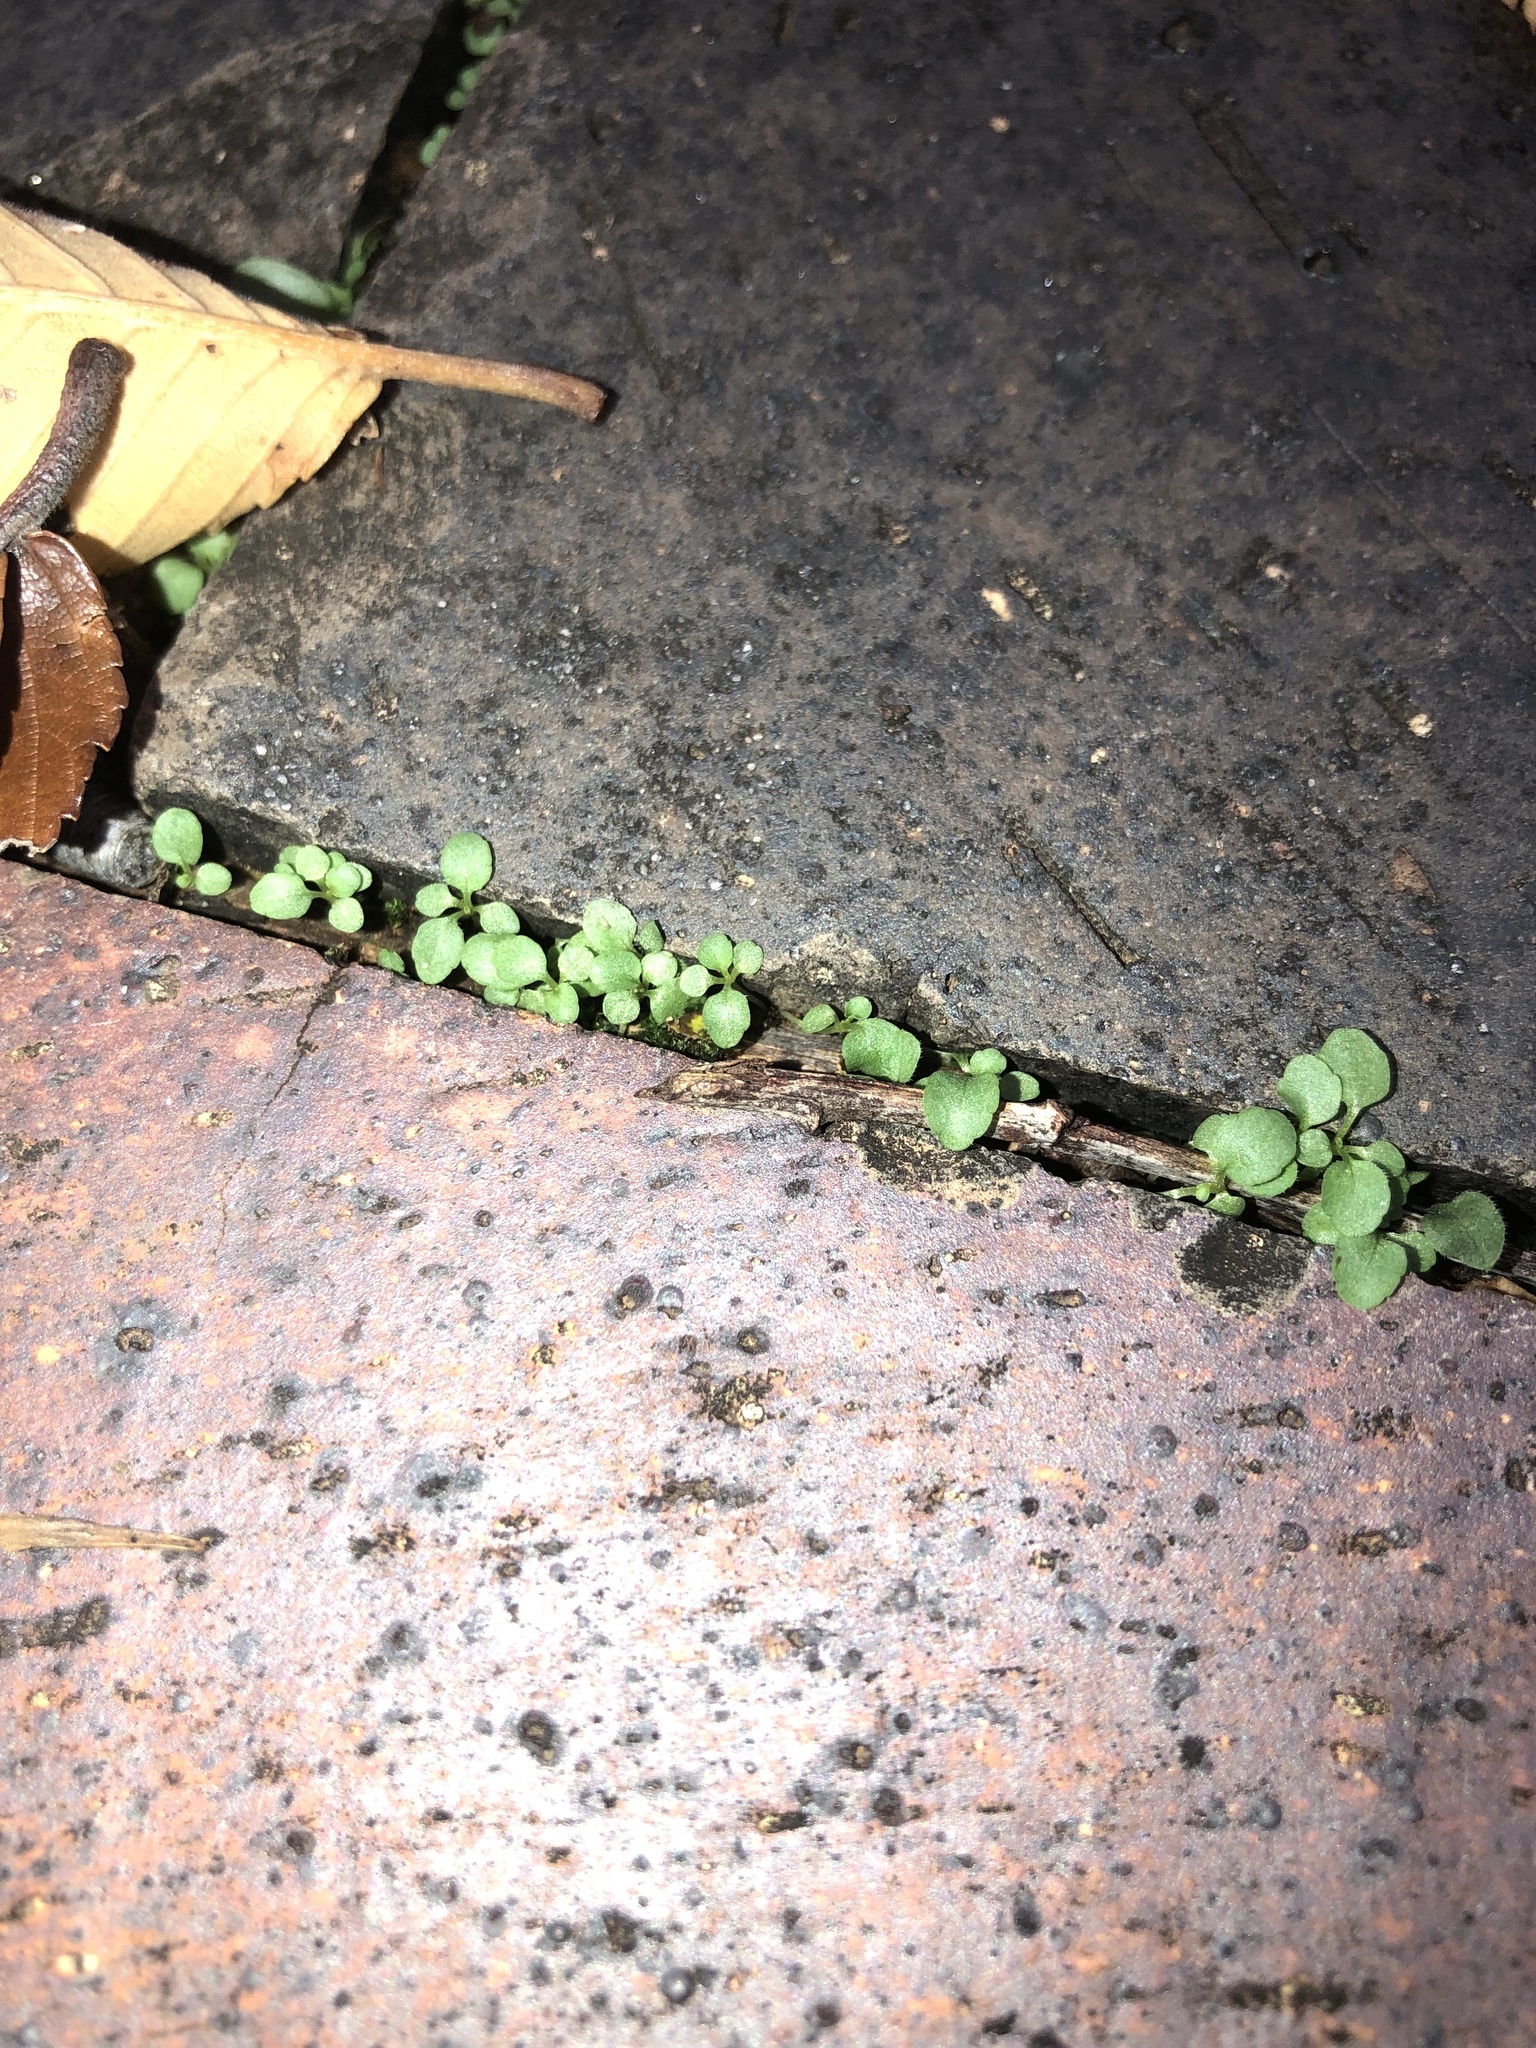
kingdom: Plantae
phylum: Tracheophyta
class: Magnoliopsida
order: Caryophyllales
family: Caryophyllaceae
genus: Stellaria
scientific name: Stellaria media
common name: Common chickweed
